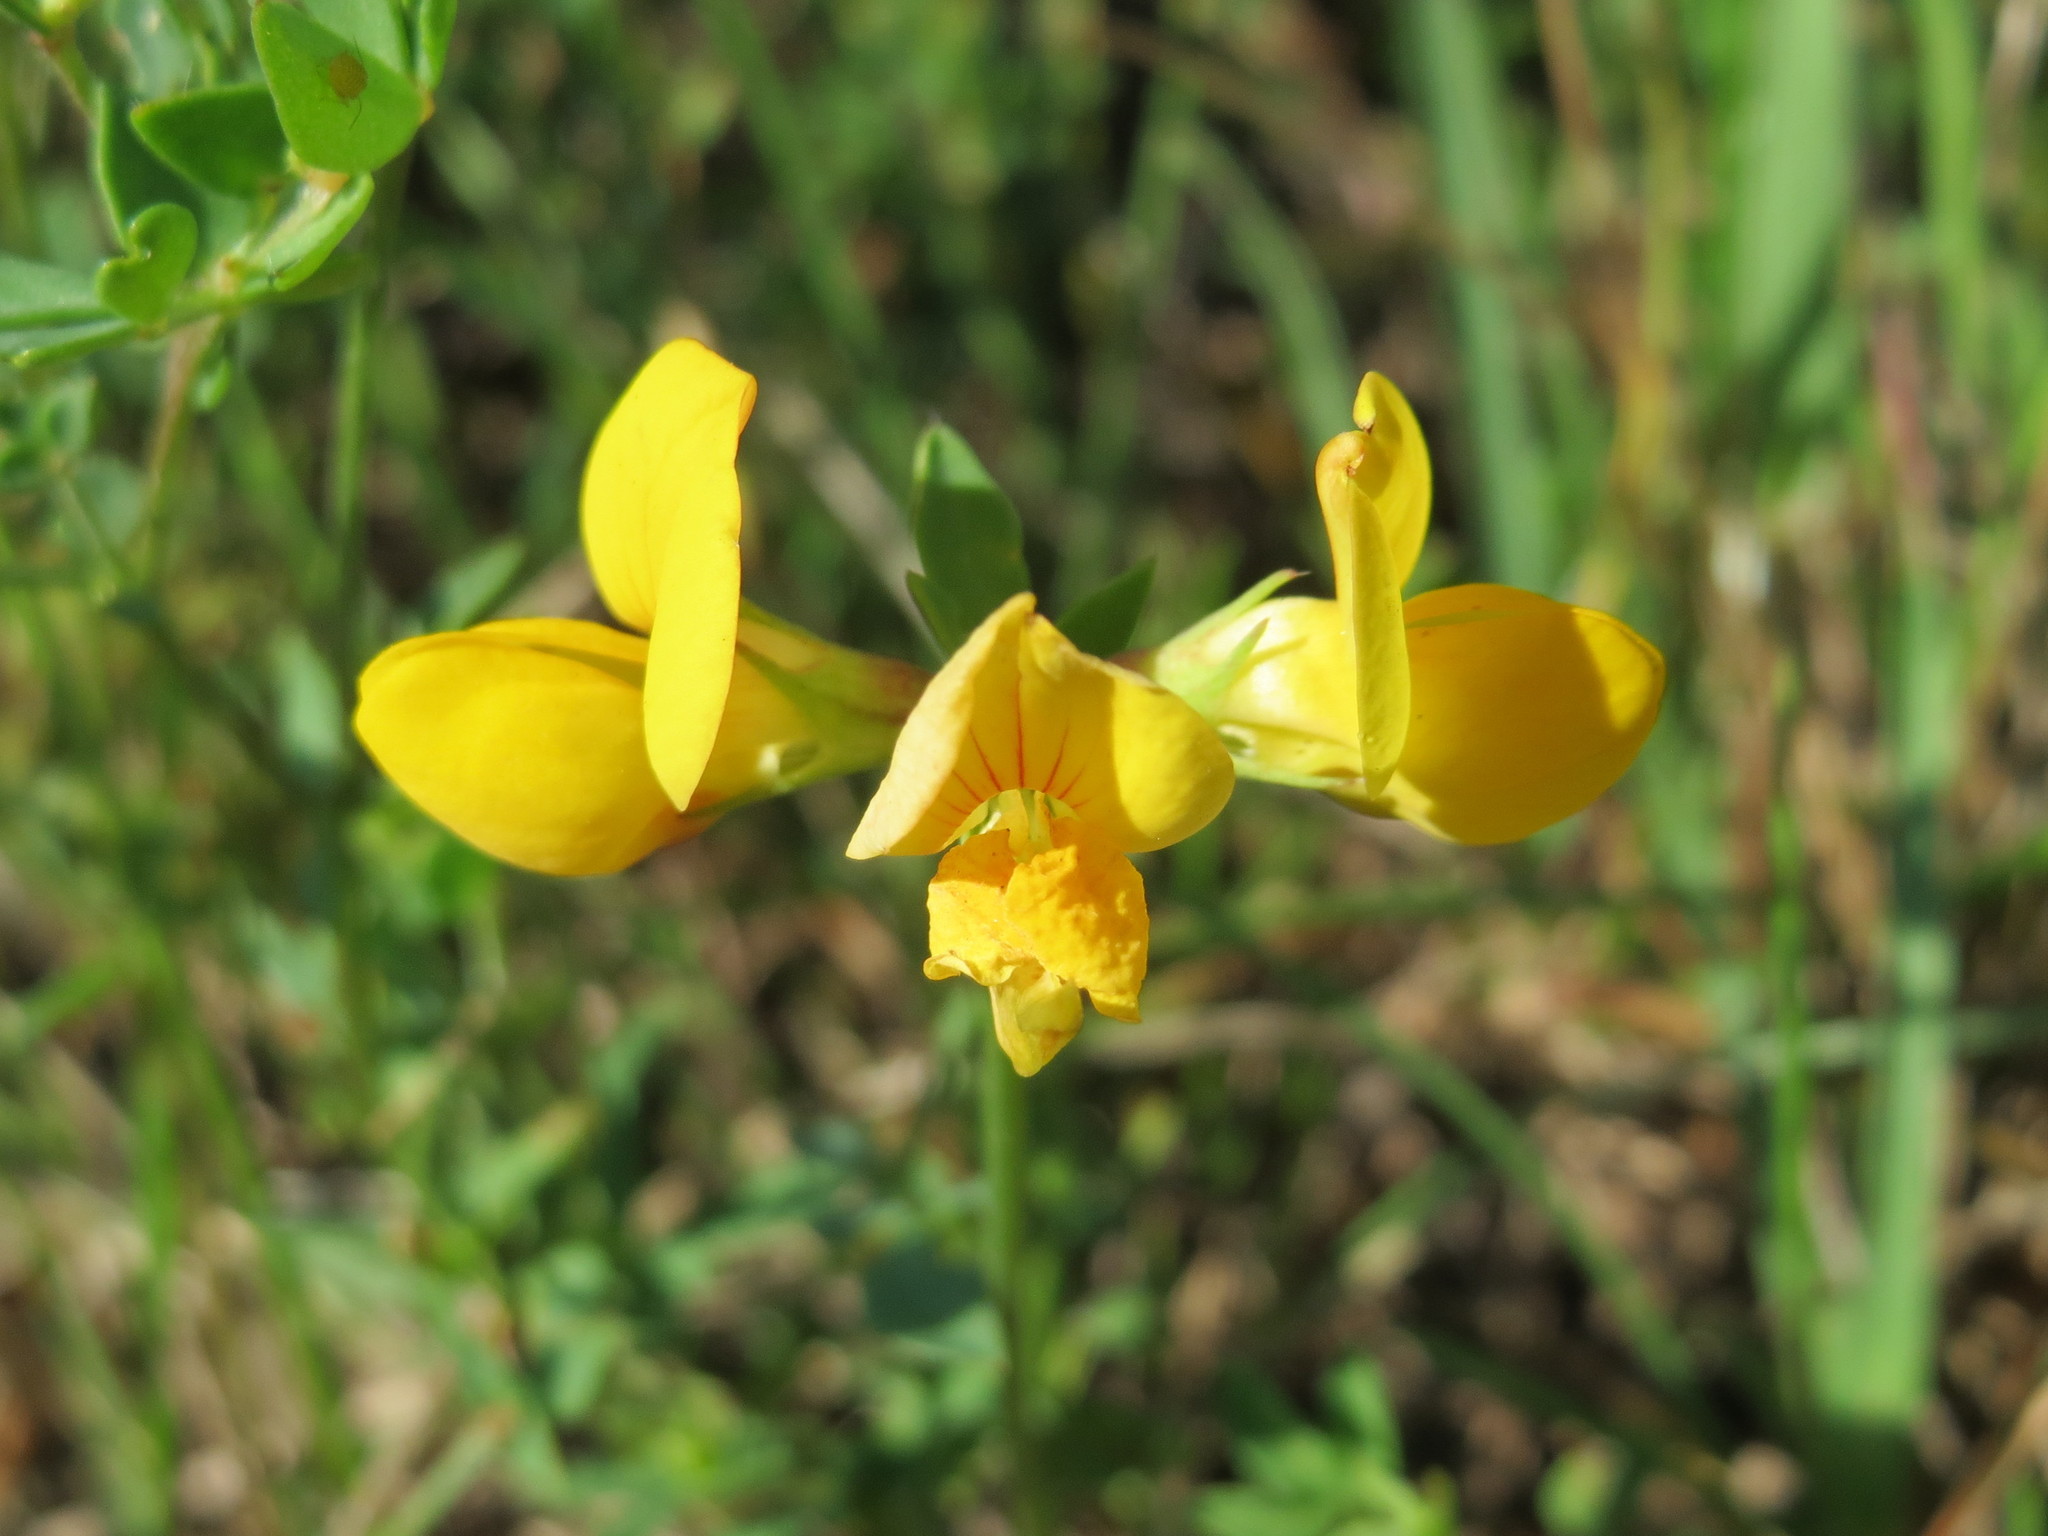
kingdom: Plantae
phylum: Tracheophyta
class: Magnoliopsida
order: Fabales
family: Fabaceae
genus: Lotus
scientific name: Lotus corniculatus
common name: Common bird's-foot-trefoil
